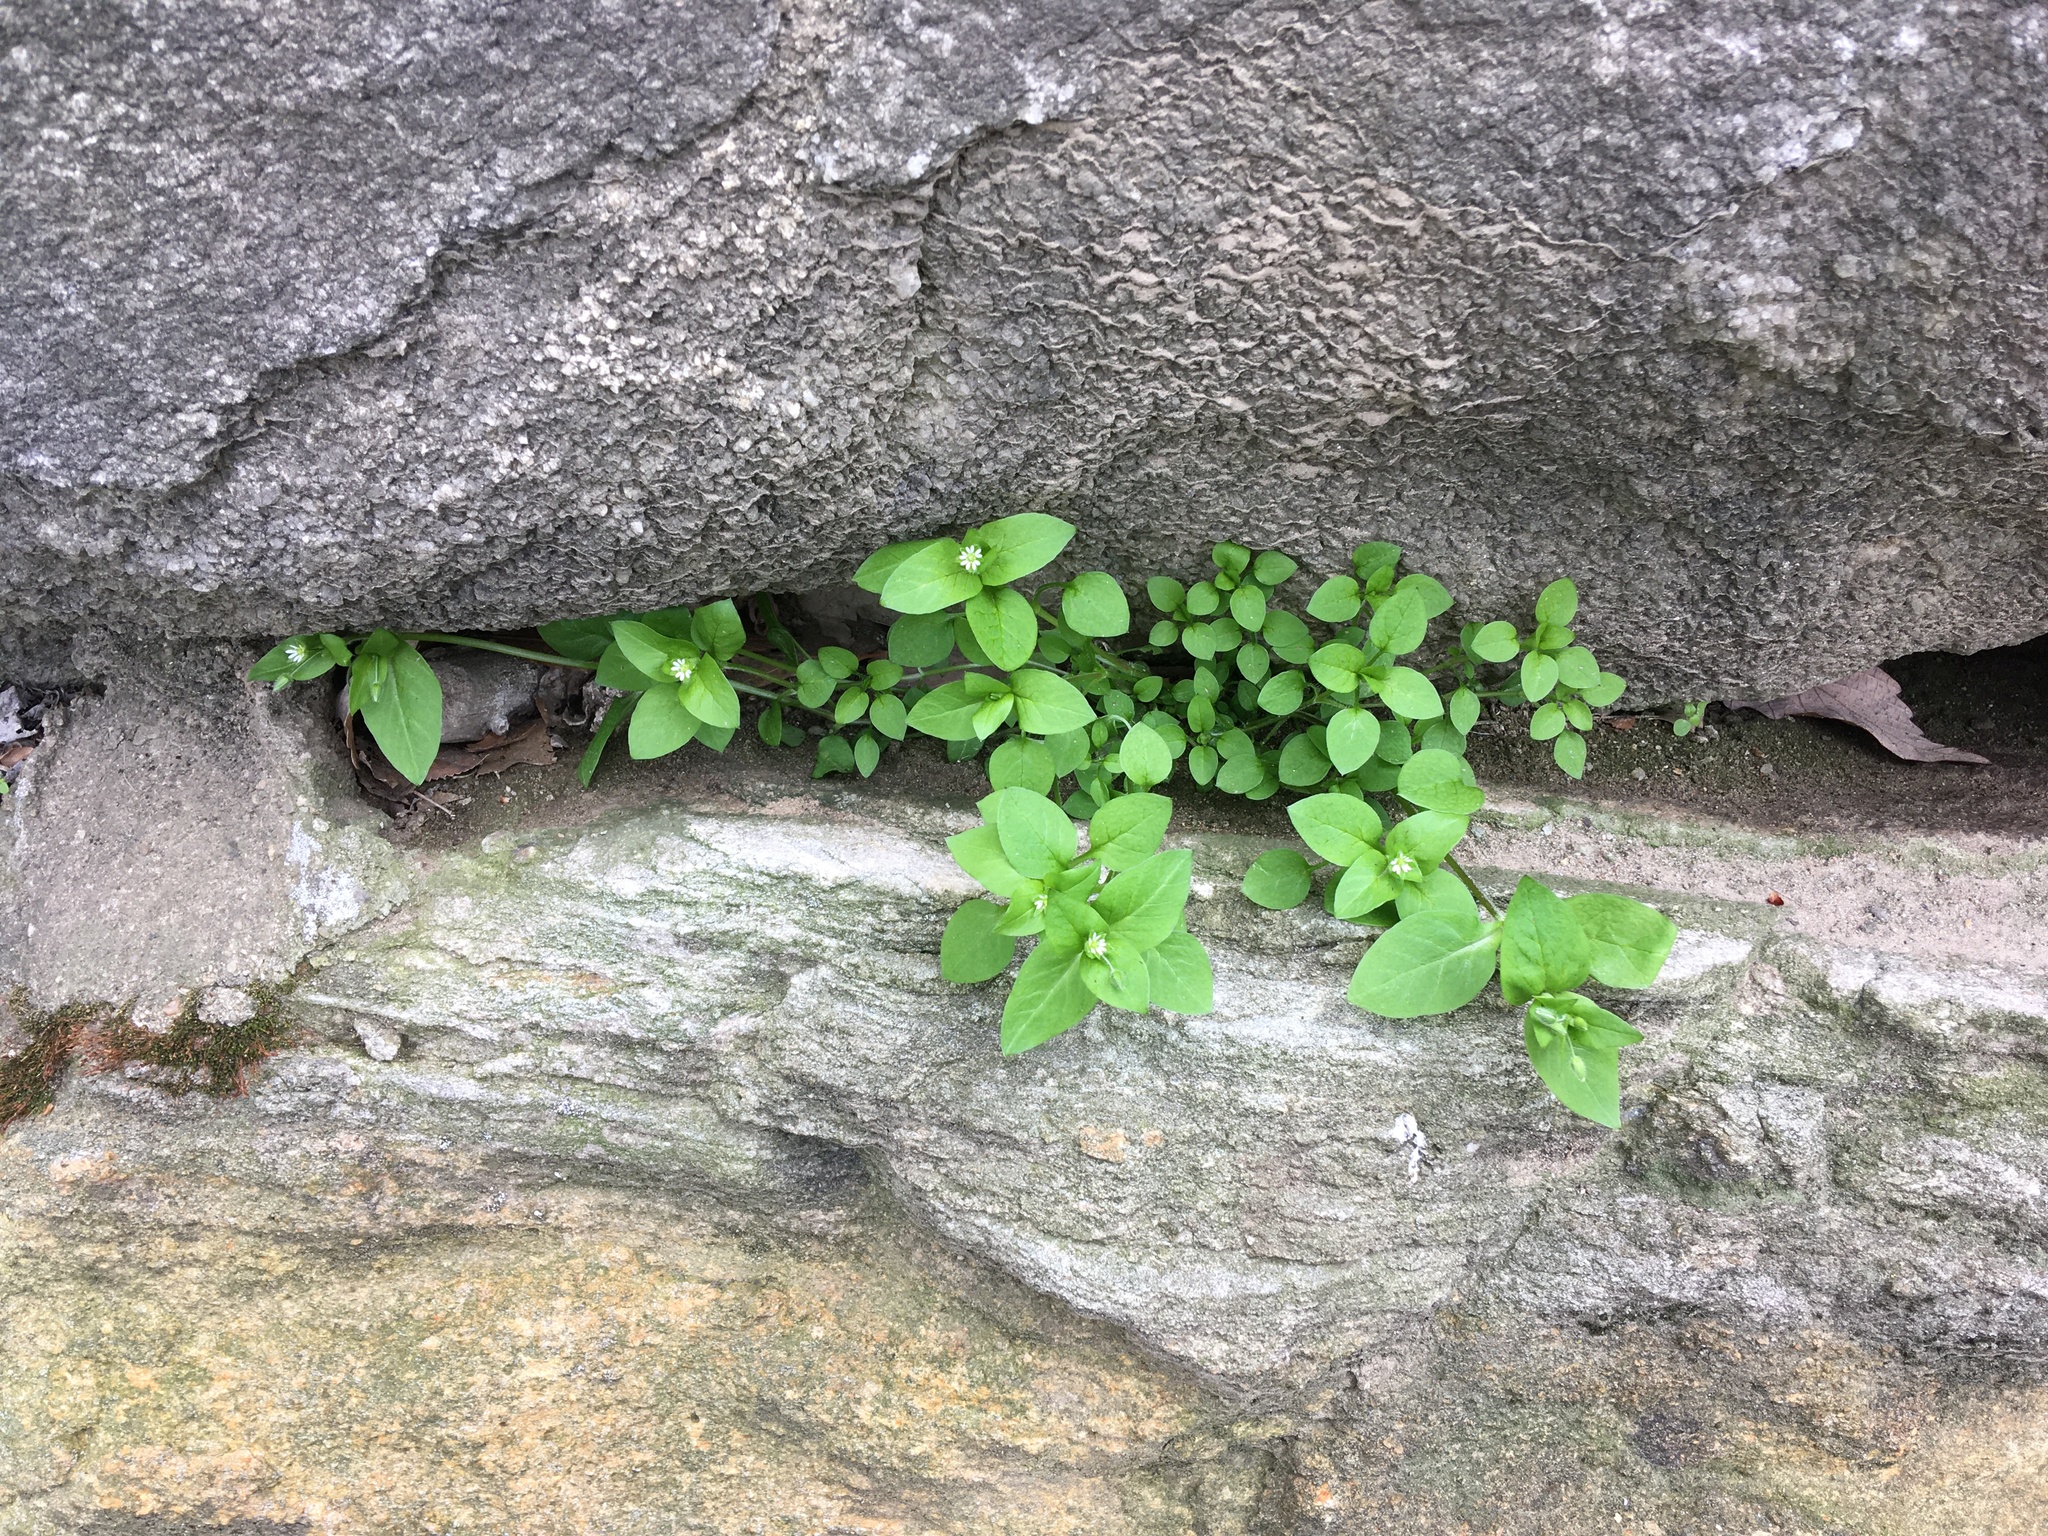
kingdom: Plantae
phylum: Tracheophyta
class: Magnoliopsida
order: Caryophyllales
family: Caryophyllaceae
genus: Stellaria
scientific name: Stellaria media
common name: Common chickweed
